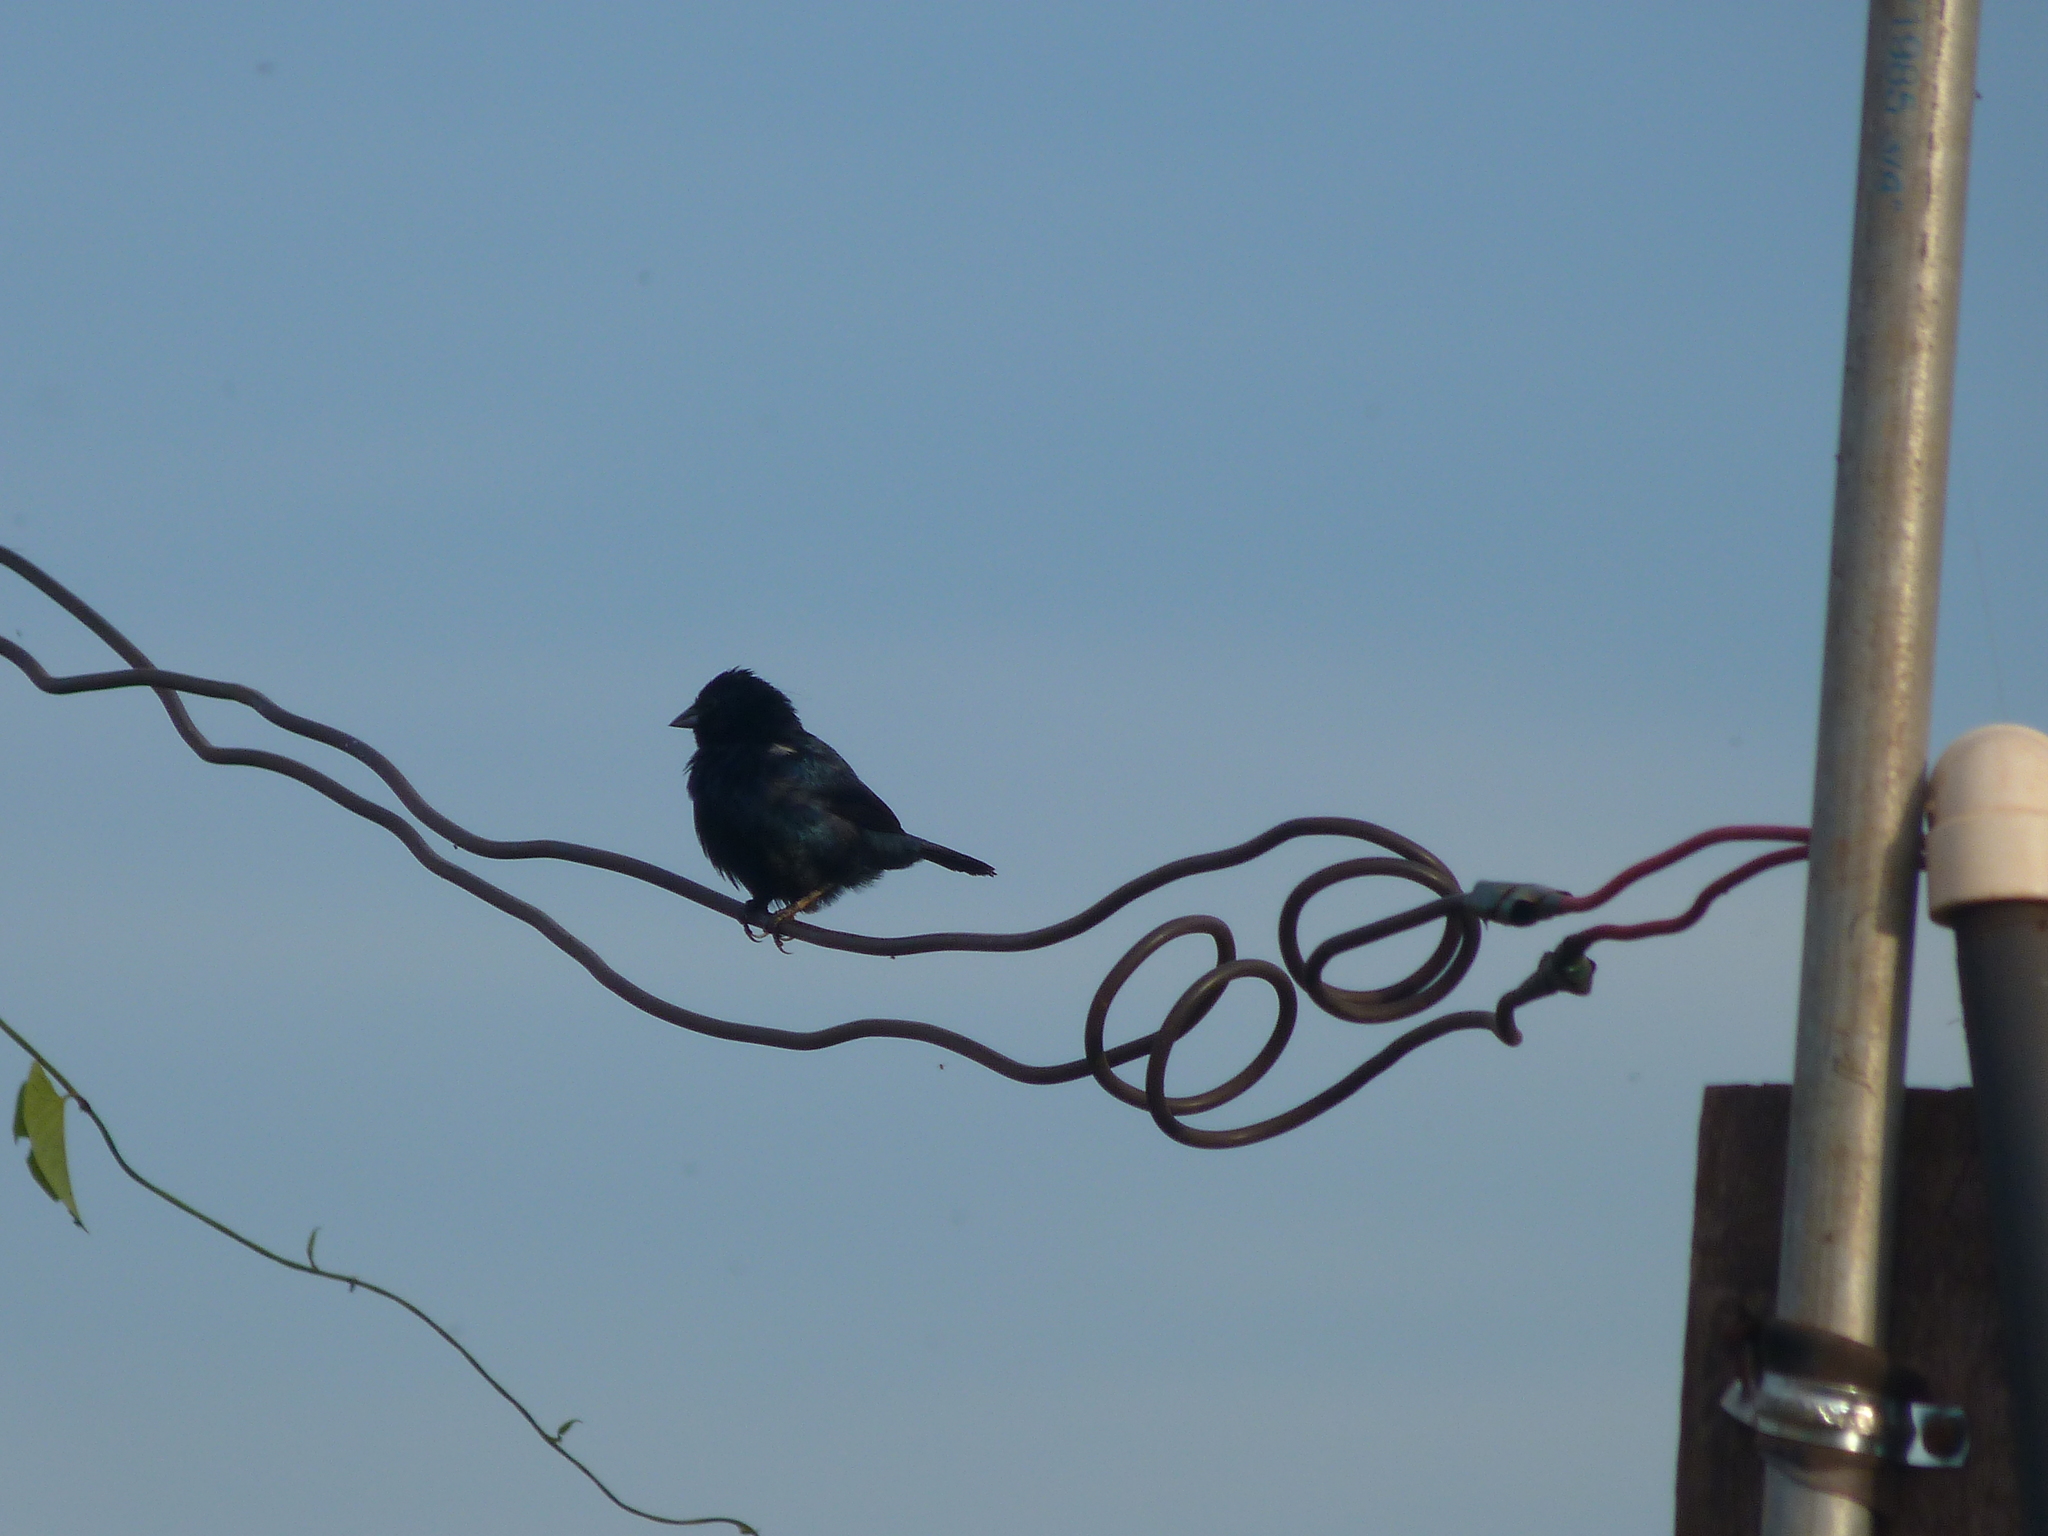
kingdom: Animalia
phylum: Chordata
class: Aves
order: Passeriformes
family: Thraupidae
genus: Volatinia
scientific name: Volatinia jacarina
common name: Blue-black grassquit
